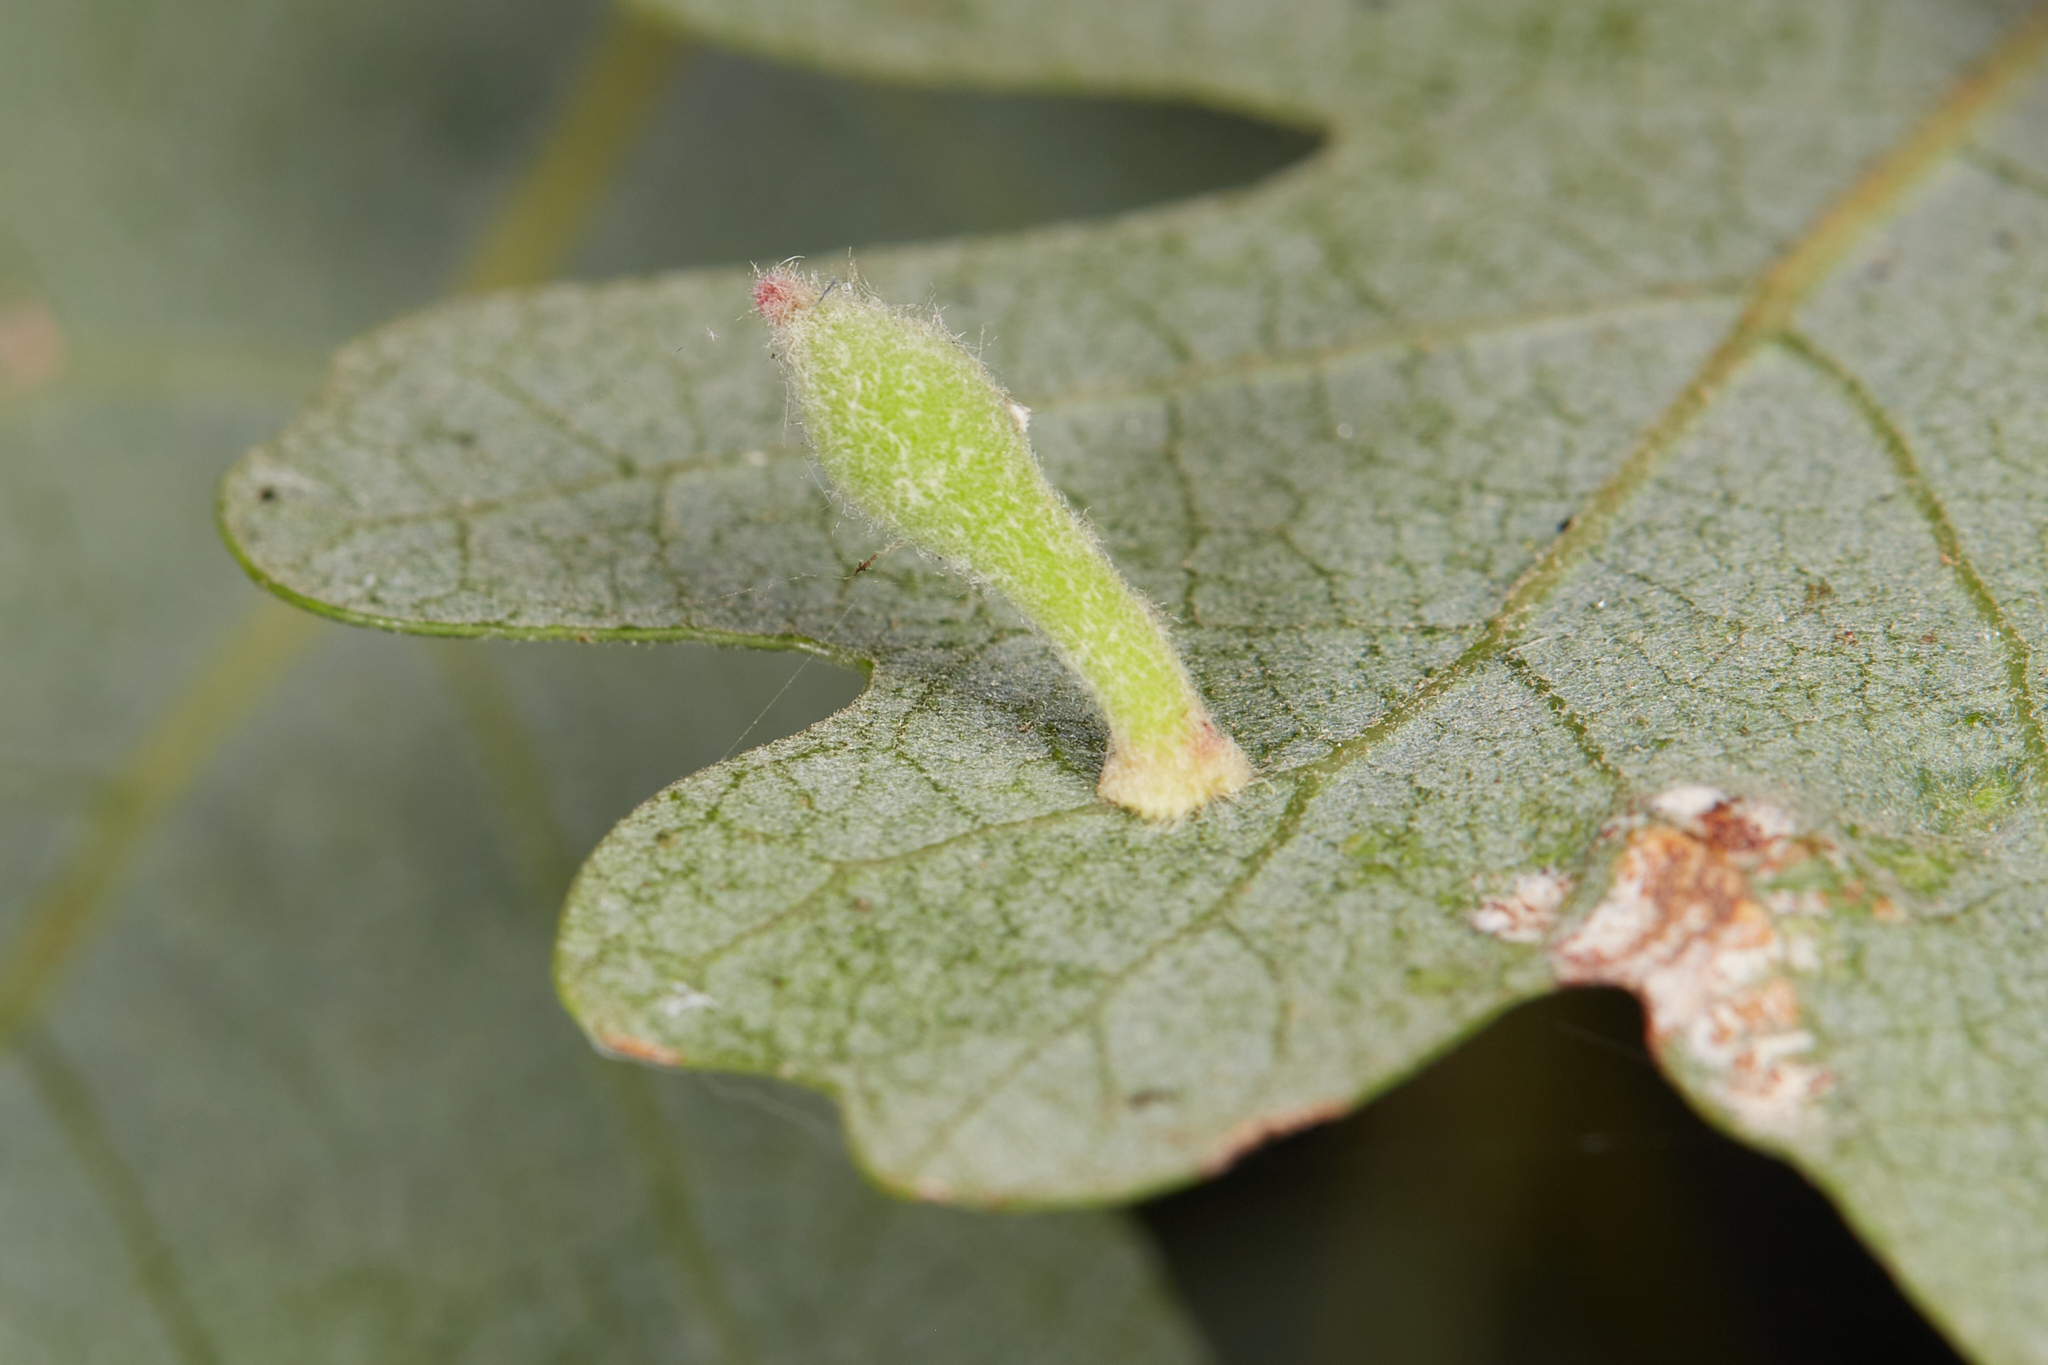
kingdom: Animalia
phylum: Arthropoda
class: Insecta
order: Hymenoptera
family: Cynipidae
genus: Atrusca
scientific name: Atrusca
